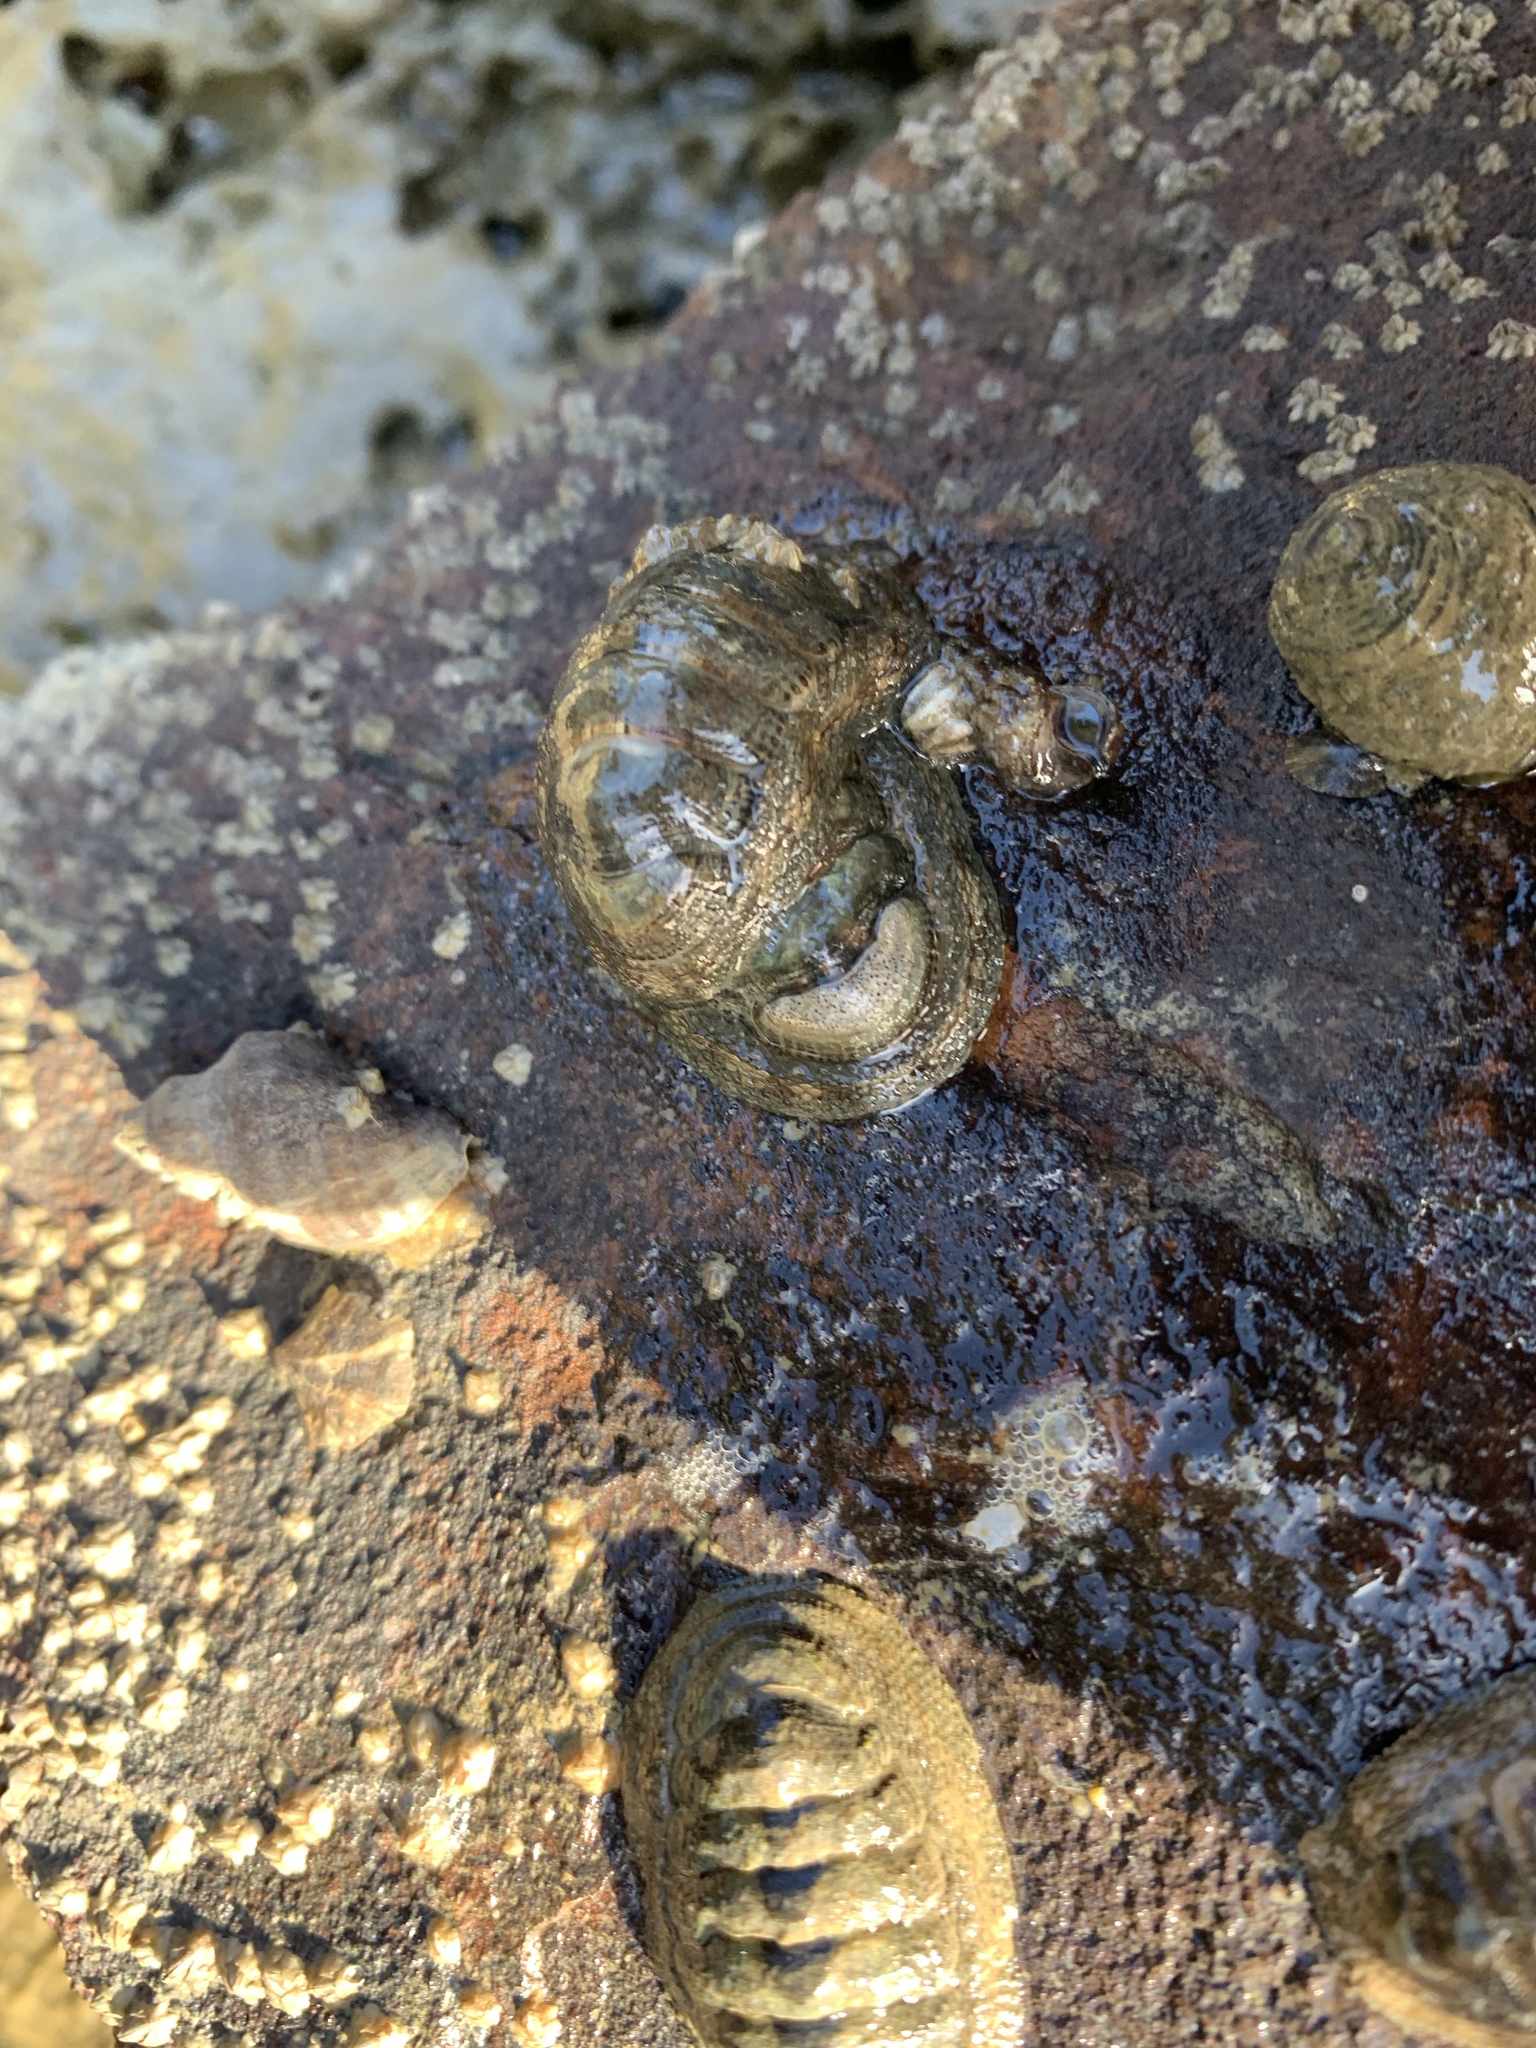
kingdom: Animalia
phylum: Mollusca
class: Polyplacophora
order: Chitonida
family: Chitonidae
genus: Sypharochiton
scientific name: Sypharochiton pelliserpentis
